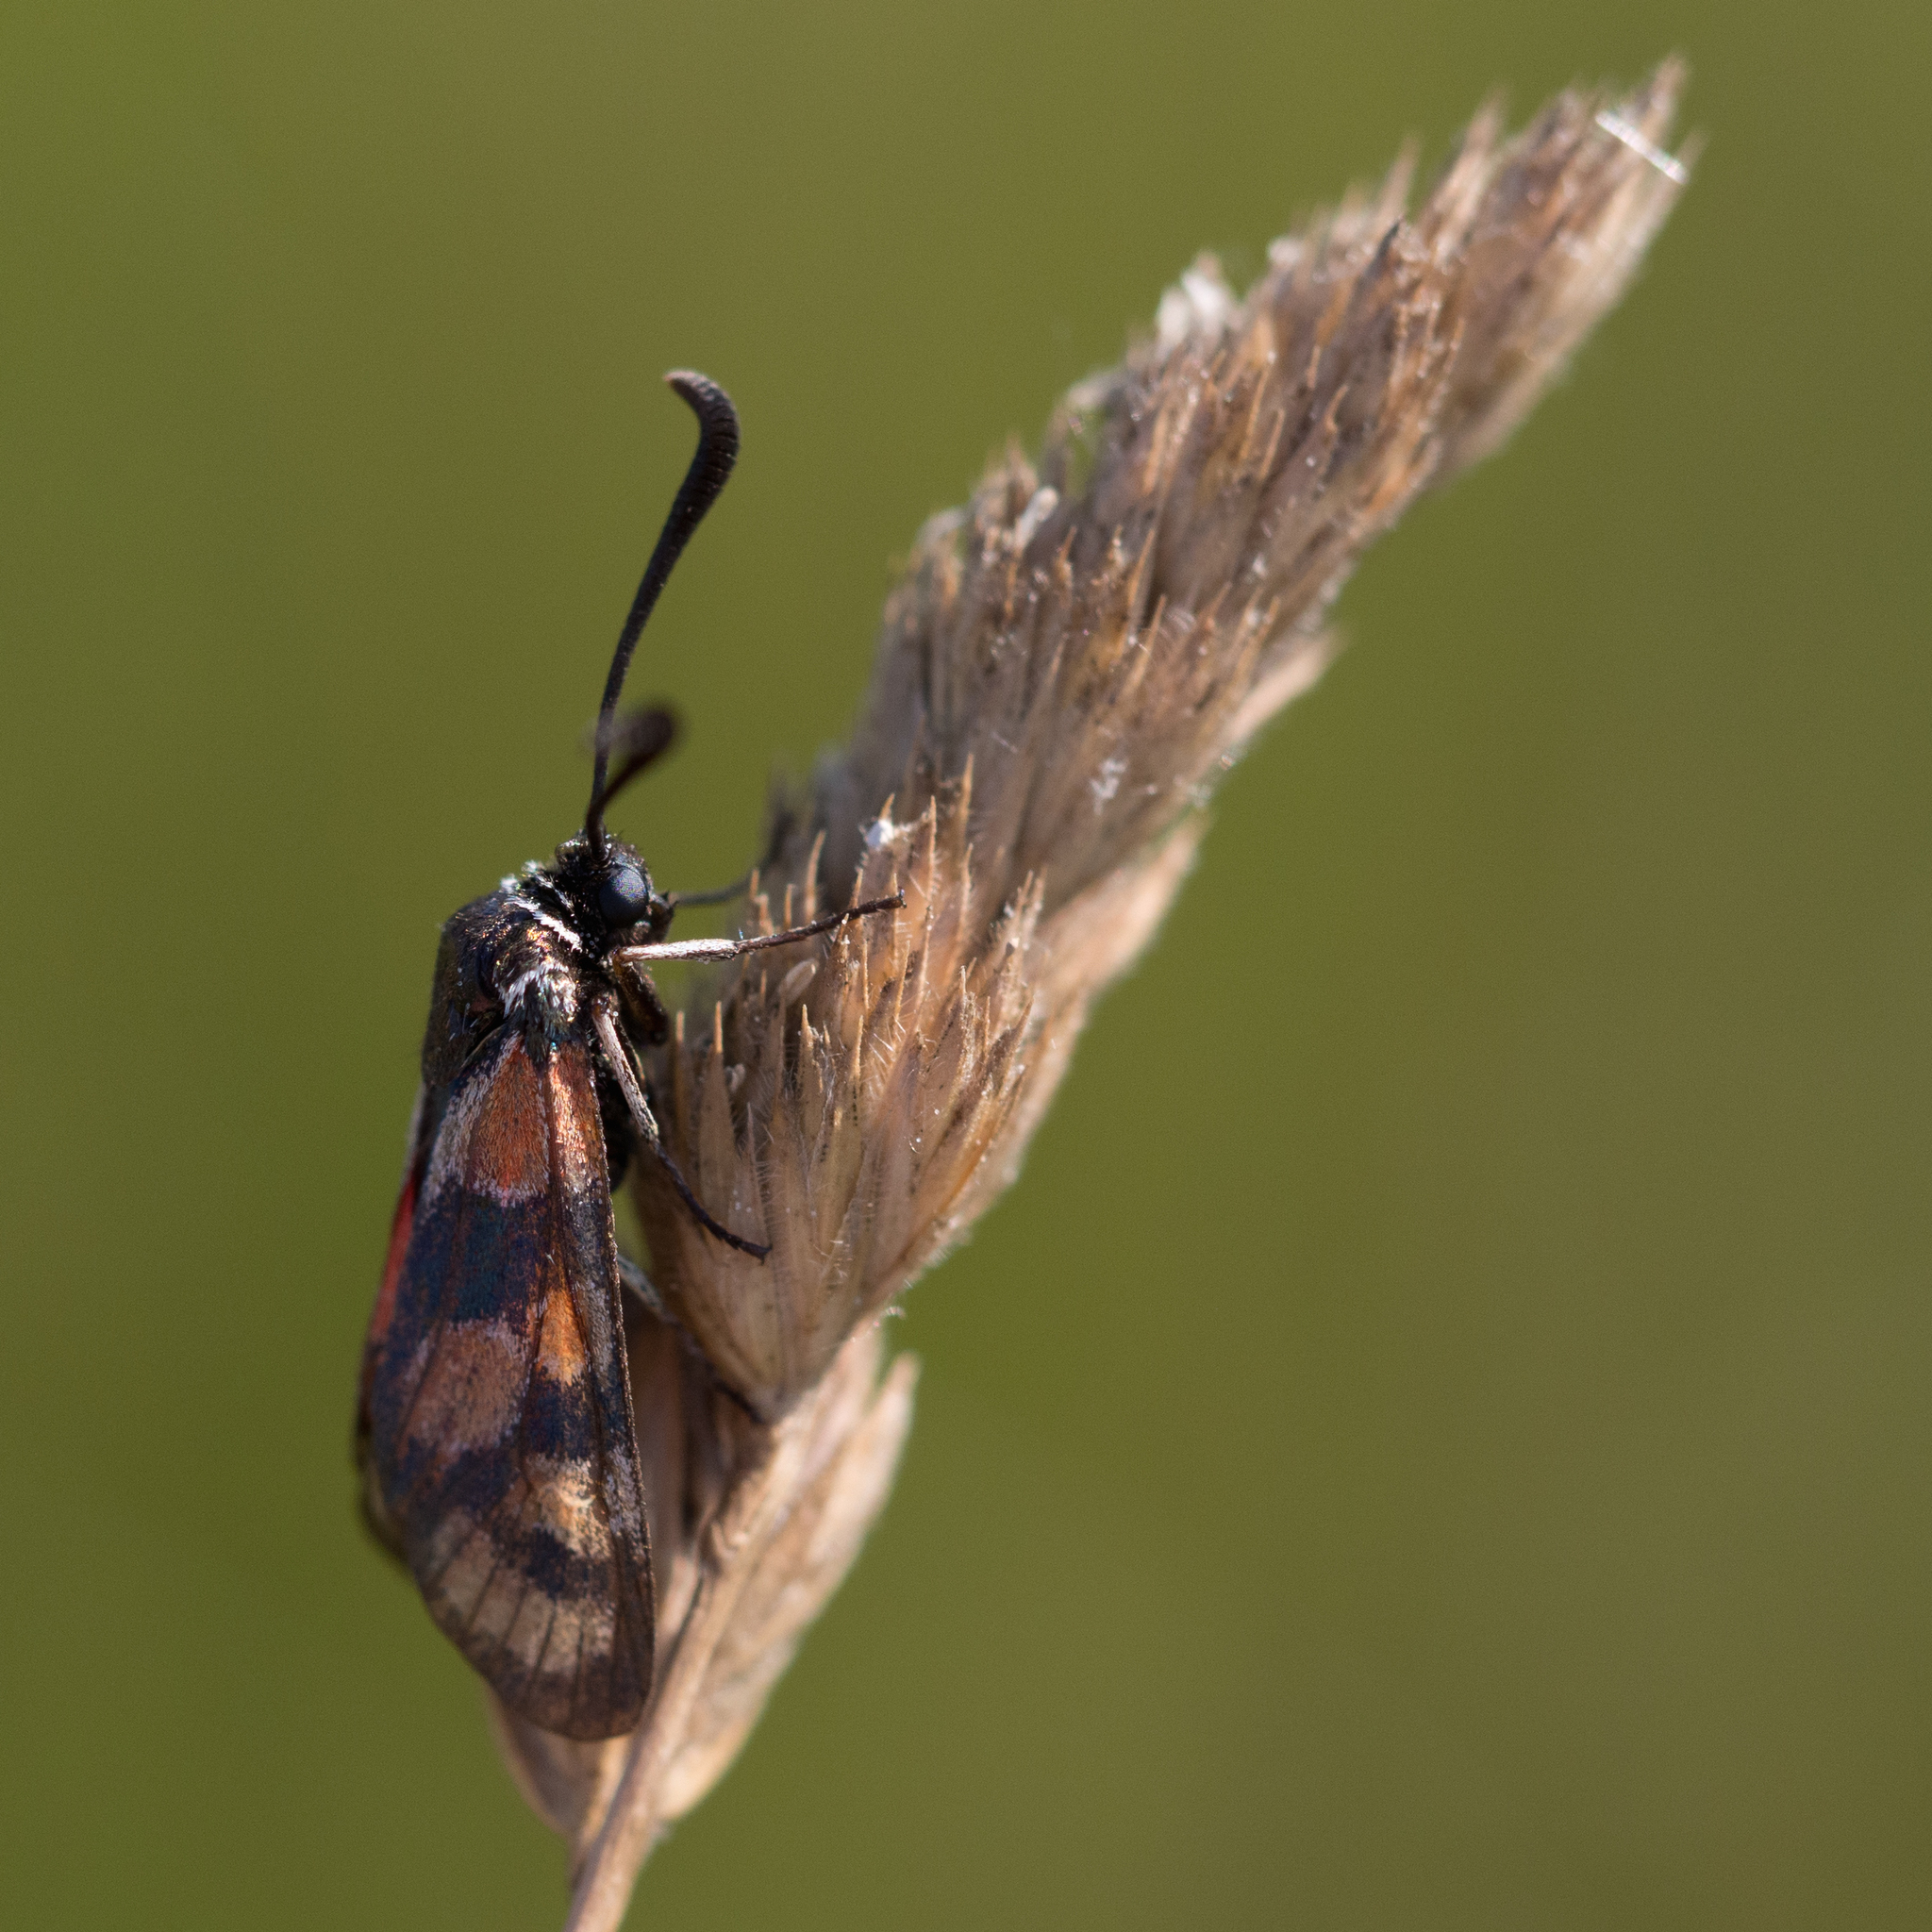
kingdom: Animalia
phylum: Arthropoda
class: Insecta
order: Lepidoptera
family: Zygaenidae
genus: Zygaena
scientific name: Zygaena carniolica
